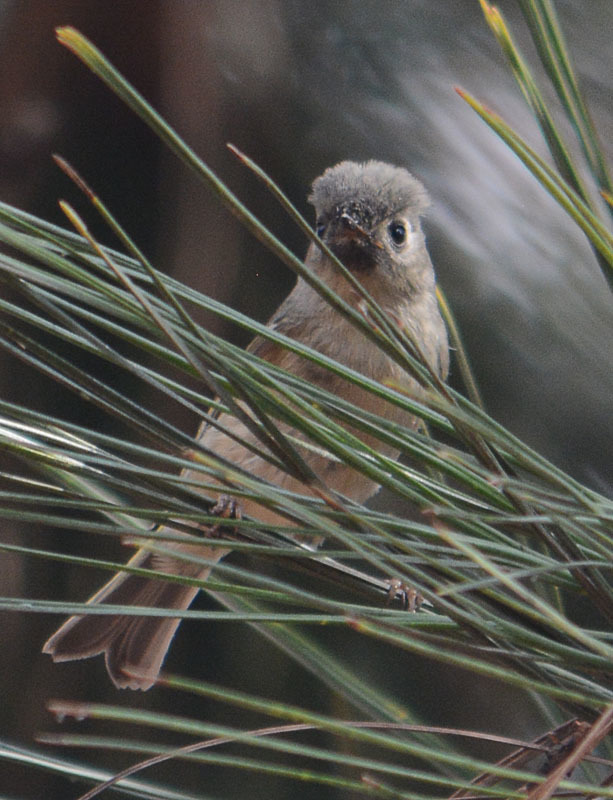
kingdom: Animalia
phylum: Chordata
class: Aves
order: Passeriformes
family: Regulidae
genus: Regulus
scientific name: Regulus calendula
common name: Ruby-crowned kinglet
